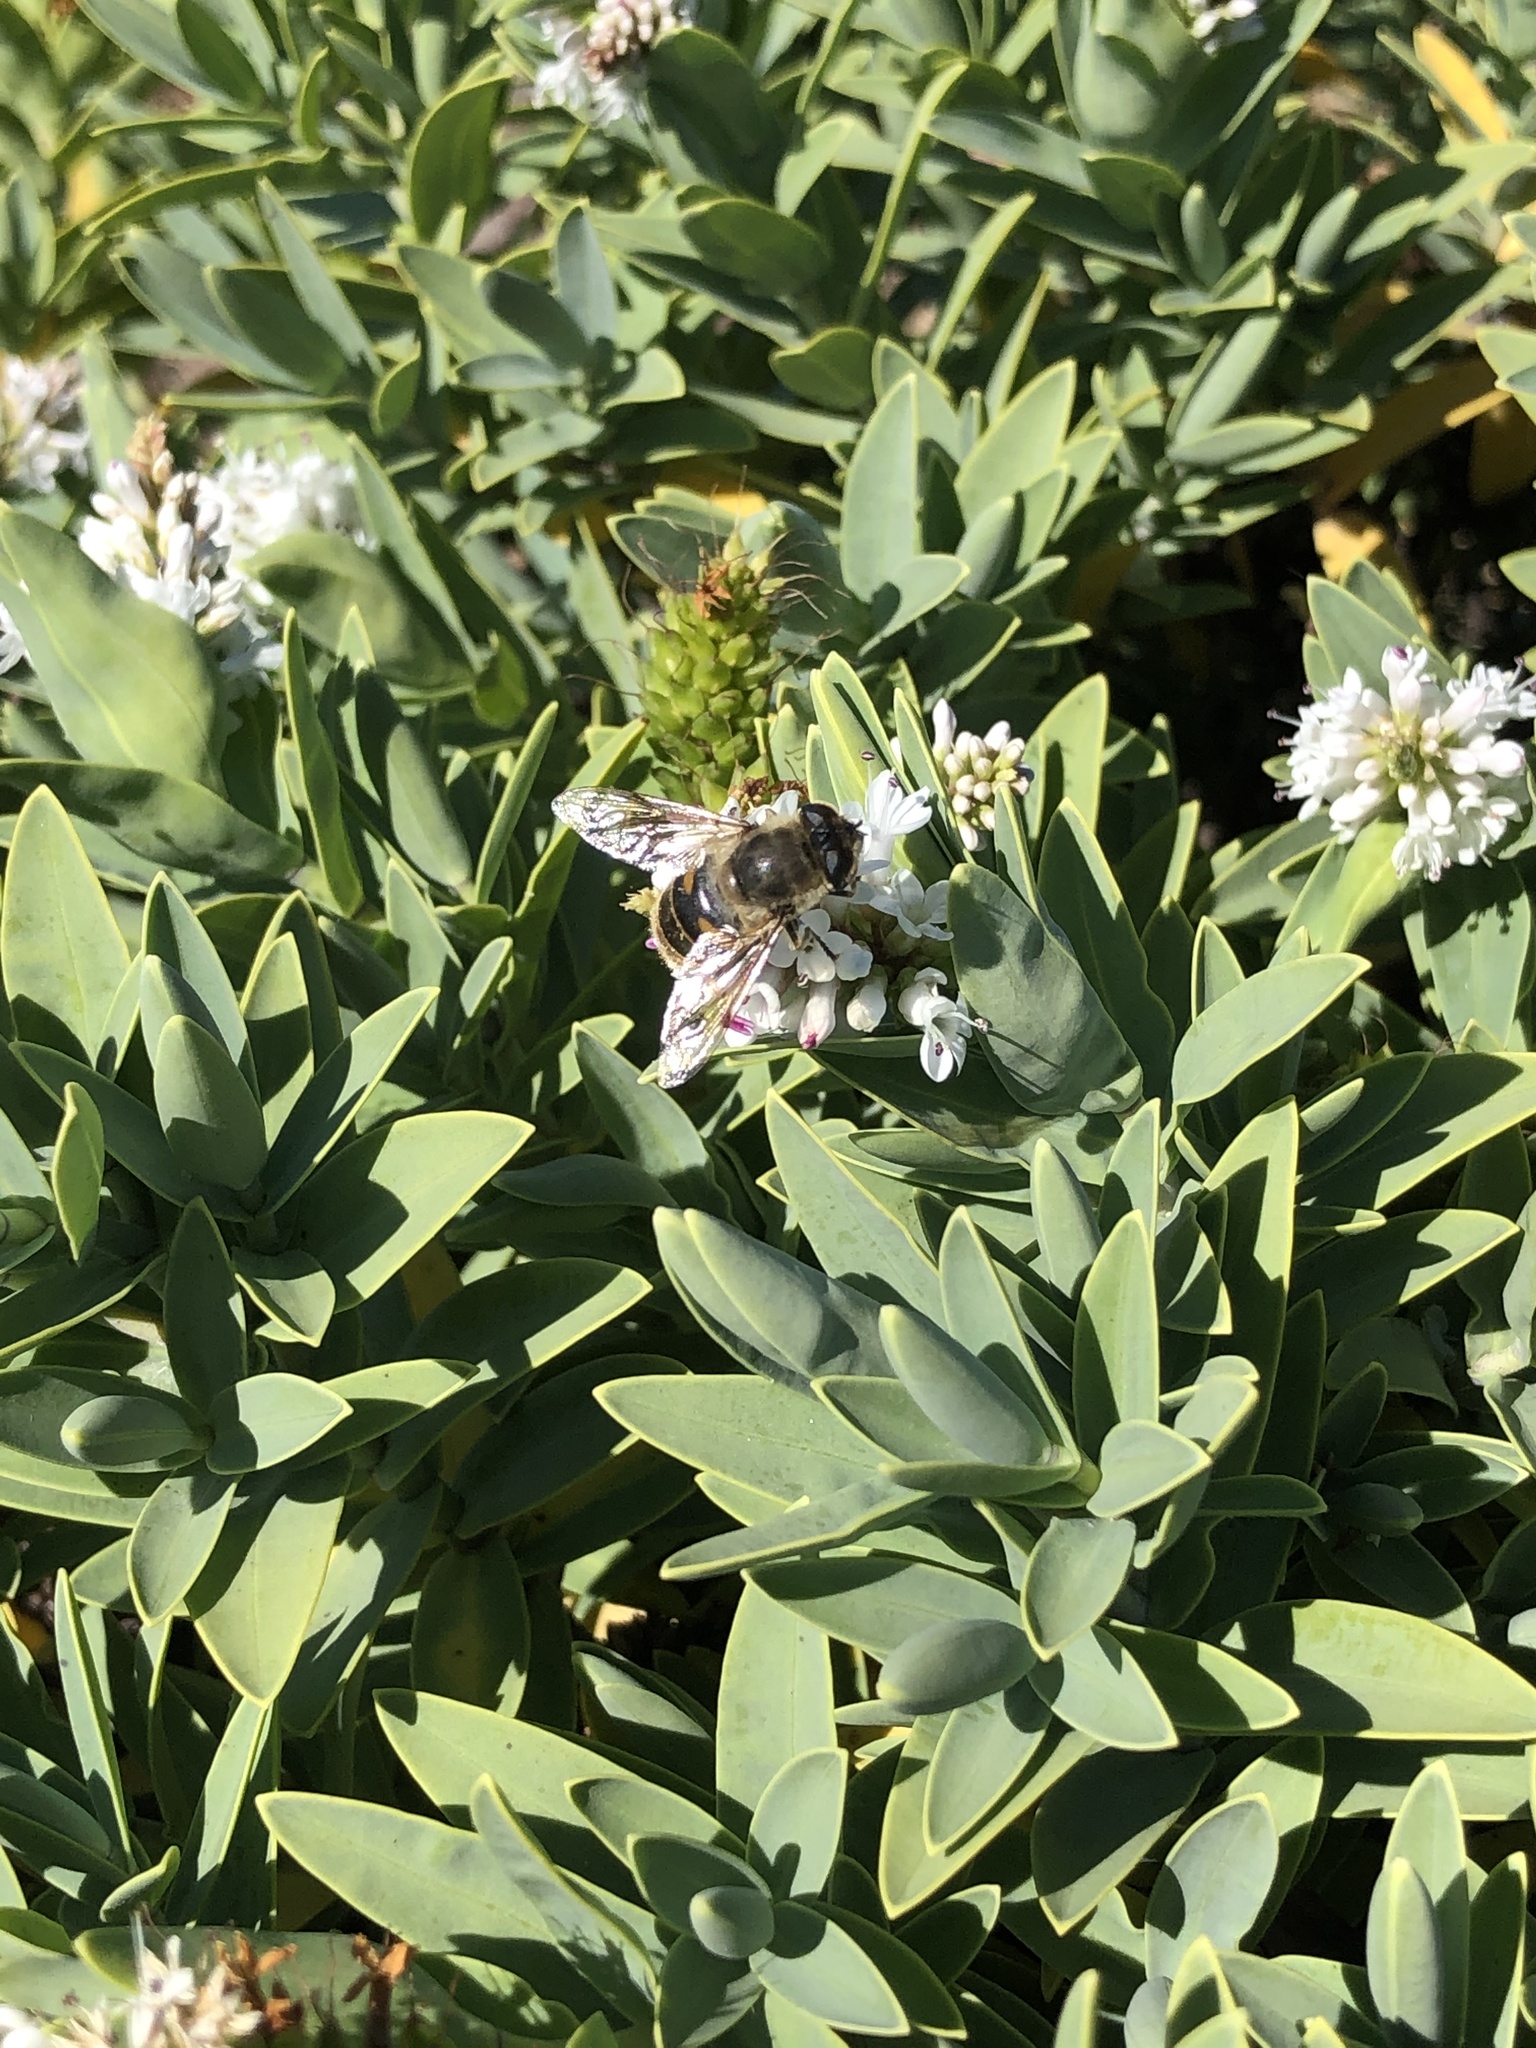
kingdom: Animalia
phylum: Arthropoda
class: Insecta
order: Diptera
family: Syrphidae
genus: Eristalis
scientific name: Eristalis tenax
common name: Drone fly
